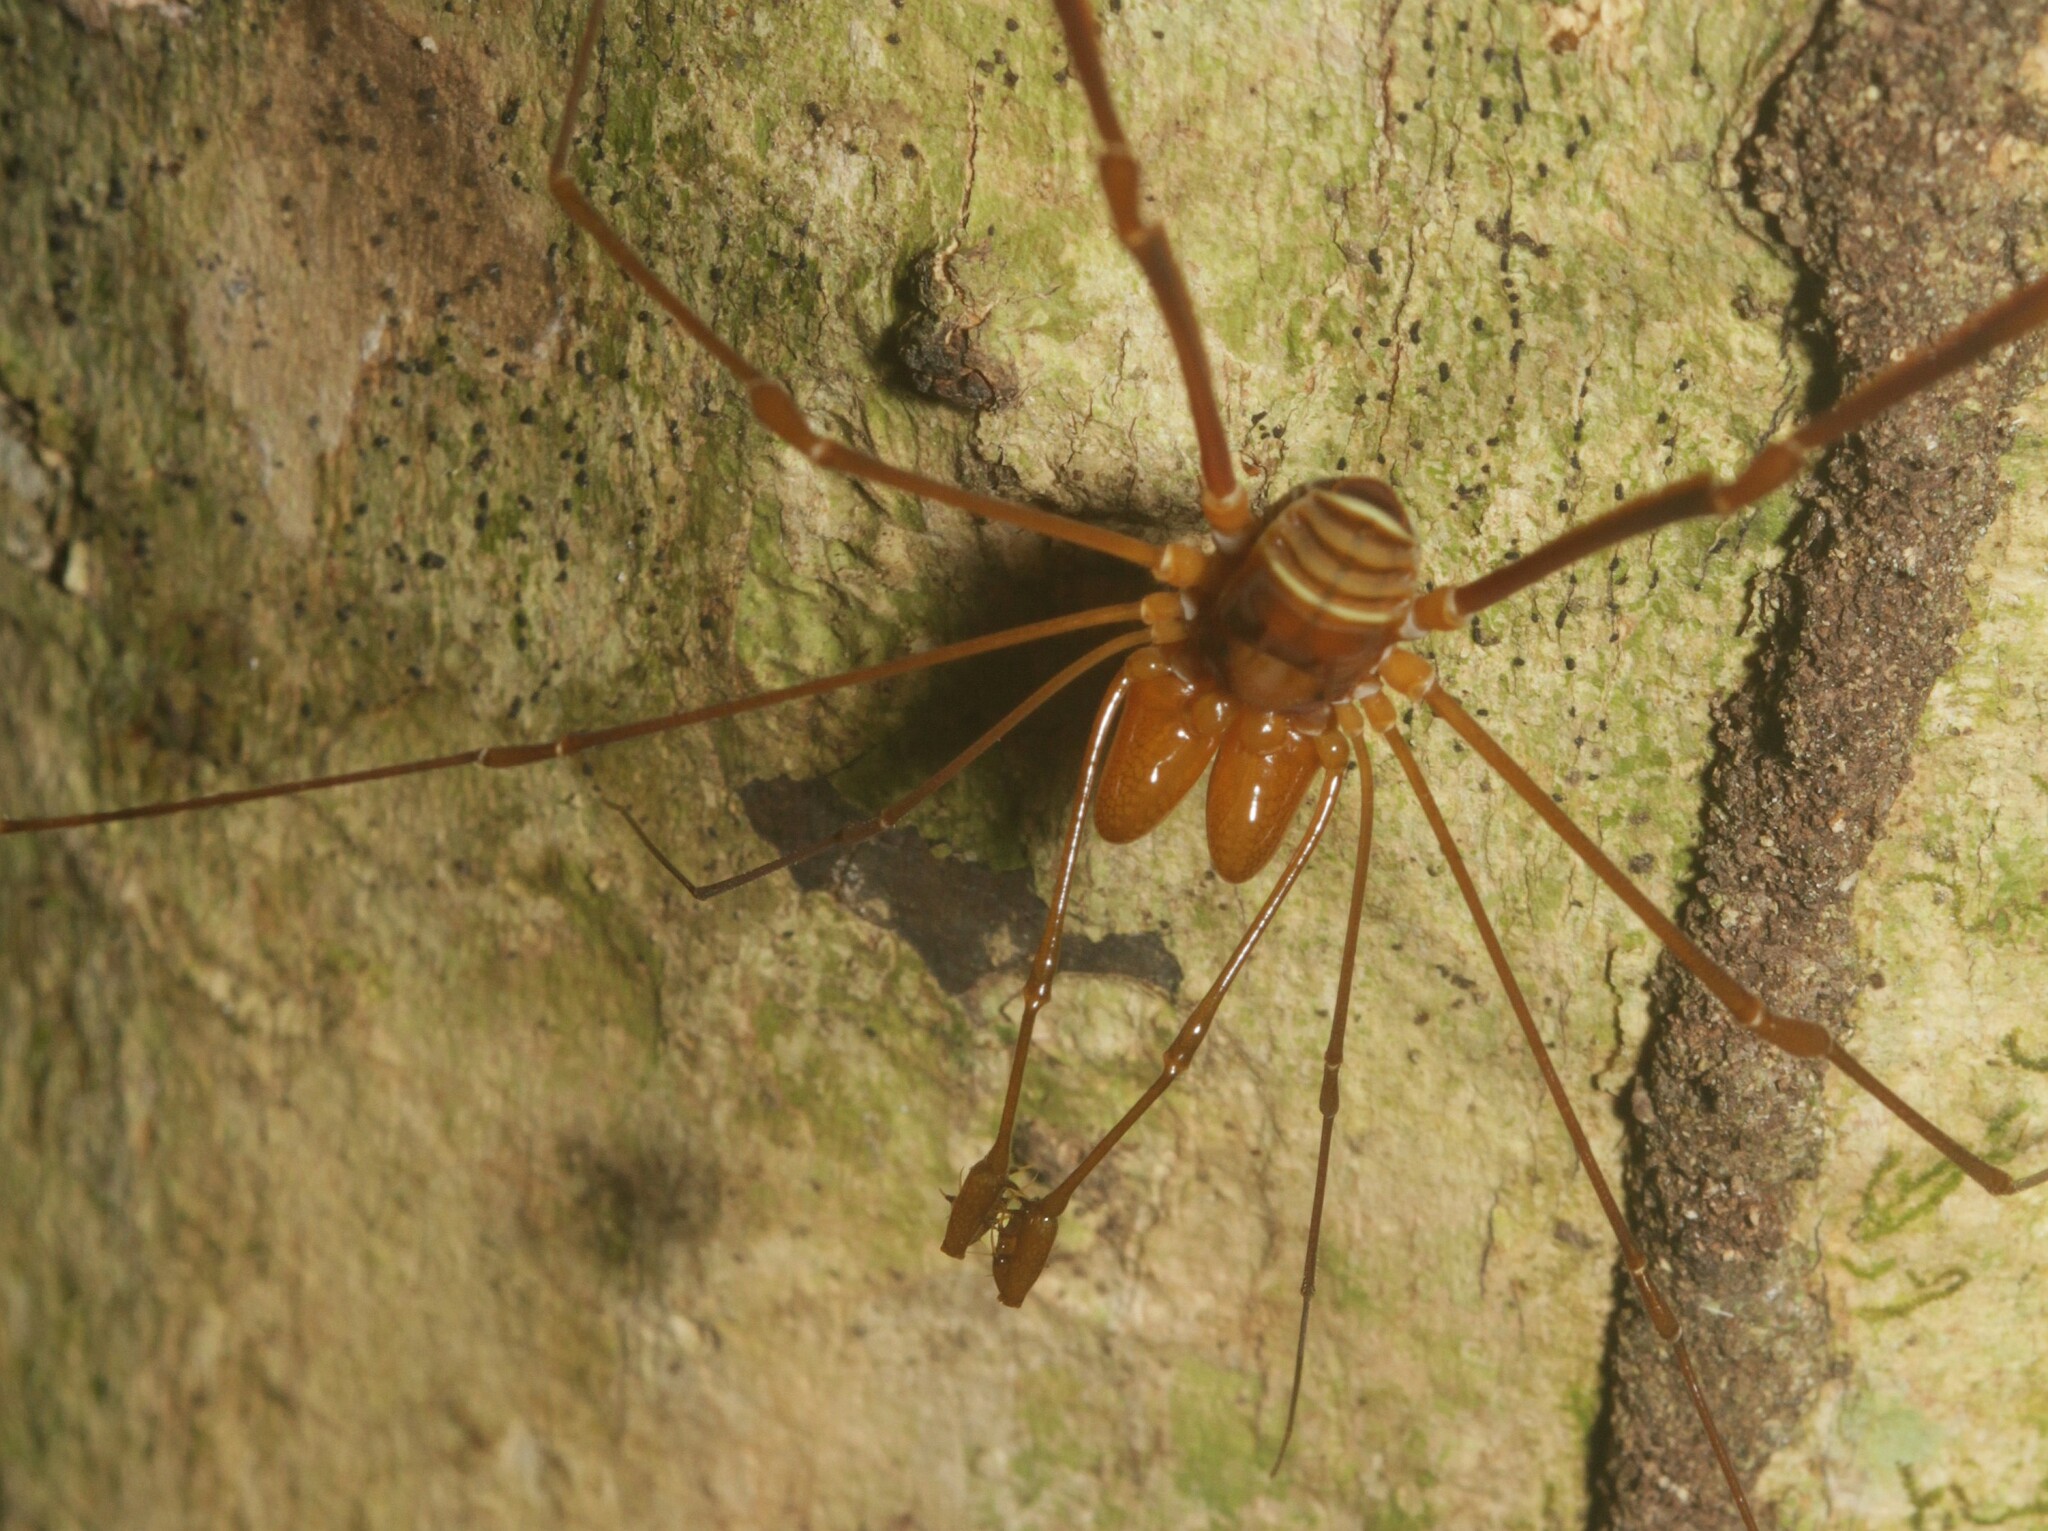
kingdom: Animalia
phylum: Arthropoda
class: Arachnida
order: Opiliones
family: Stygnidae
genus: Obidosus
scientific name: Obidosus boibumba
